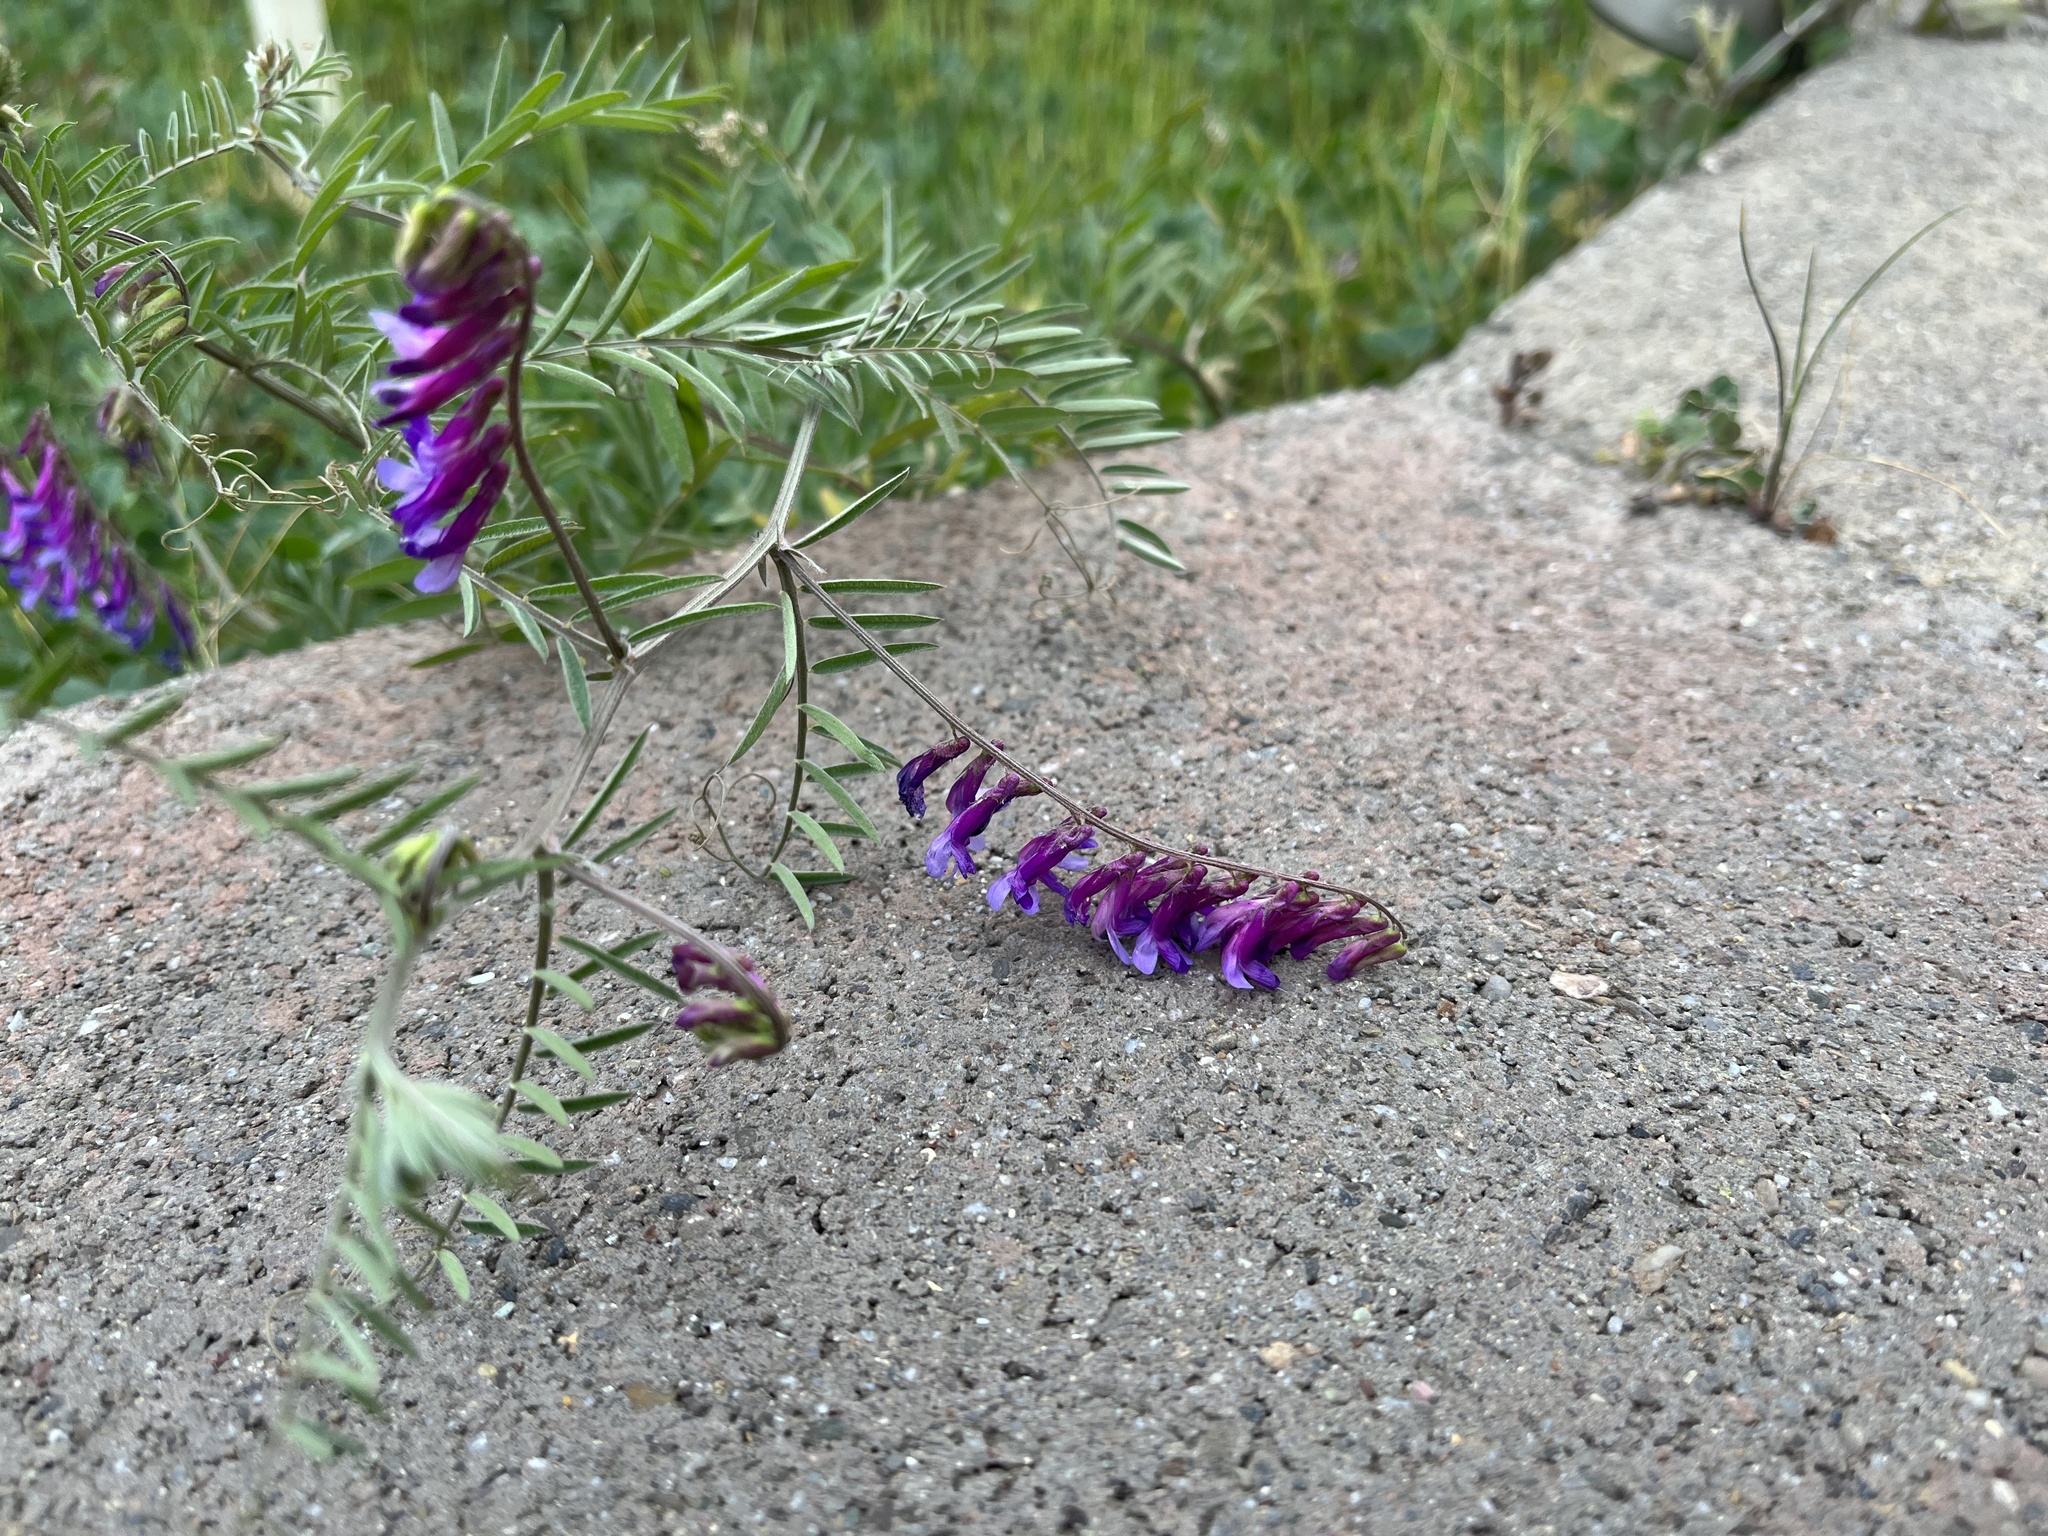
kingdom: Plantae
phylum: Tracheophyta
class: Magnoliopsida
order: Fabales
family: Fabaceae
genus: Vicia
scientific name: Vicia villosa
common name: Fodder vetch
